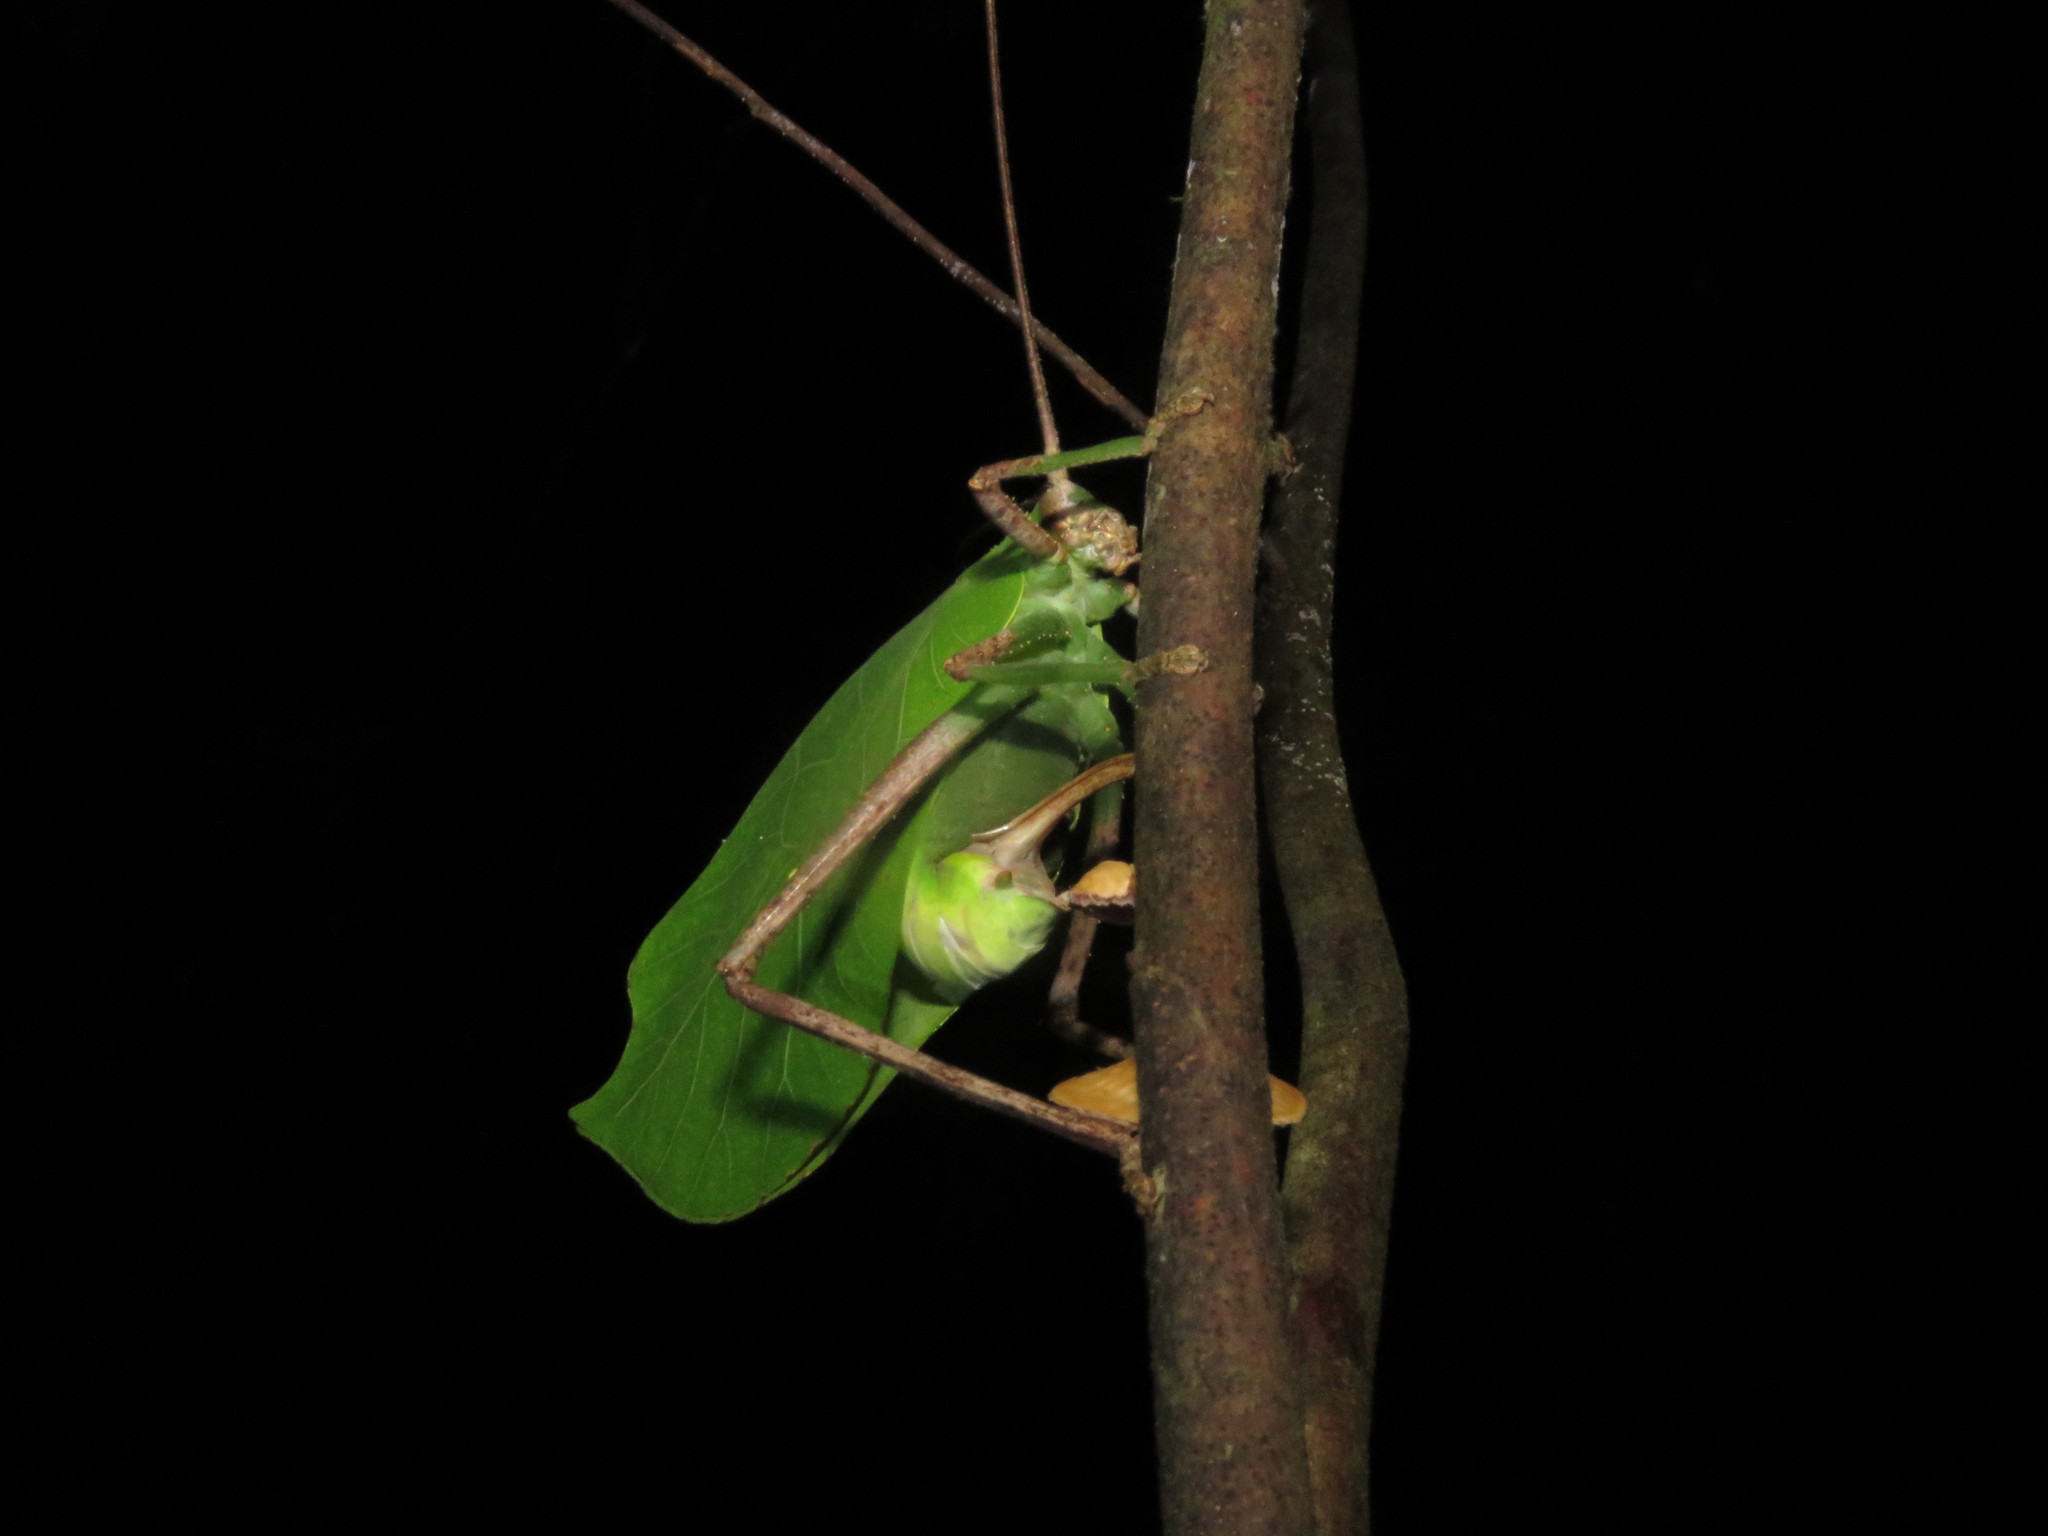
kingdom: Animalia
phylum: Arthropoda
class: Insecta
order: Orthoptera
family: Tettigoniidae
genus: Cycloptera
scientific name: Cycloptera speculata
